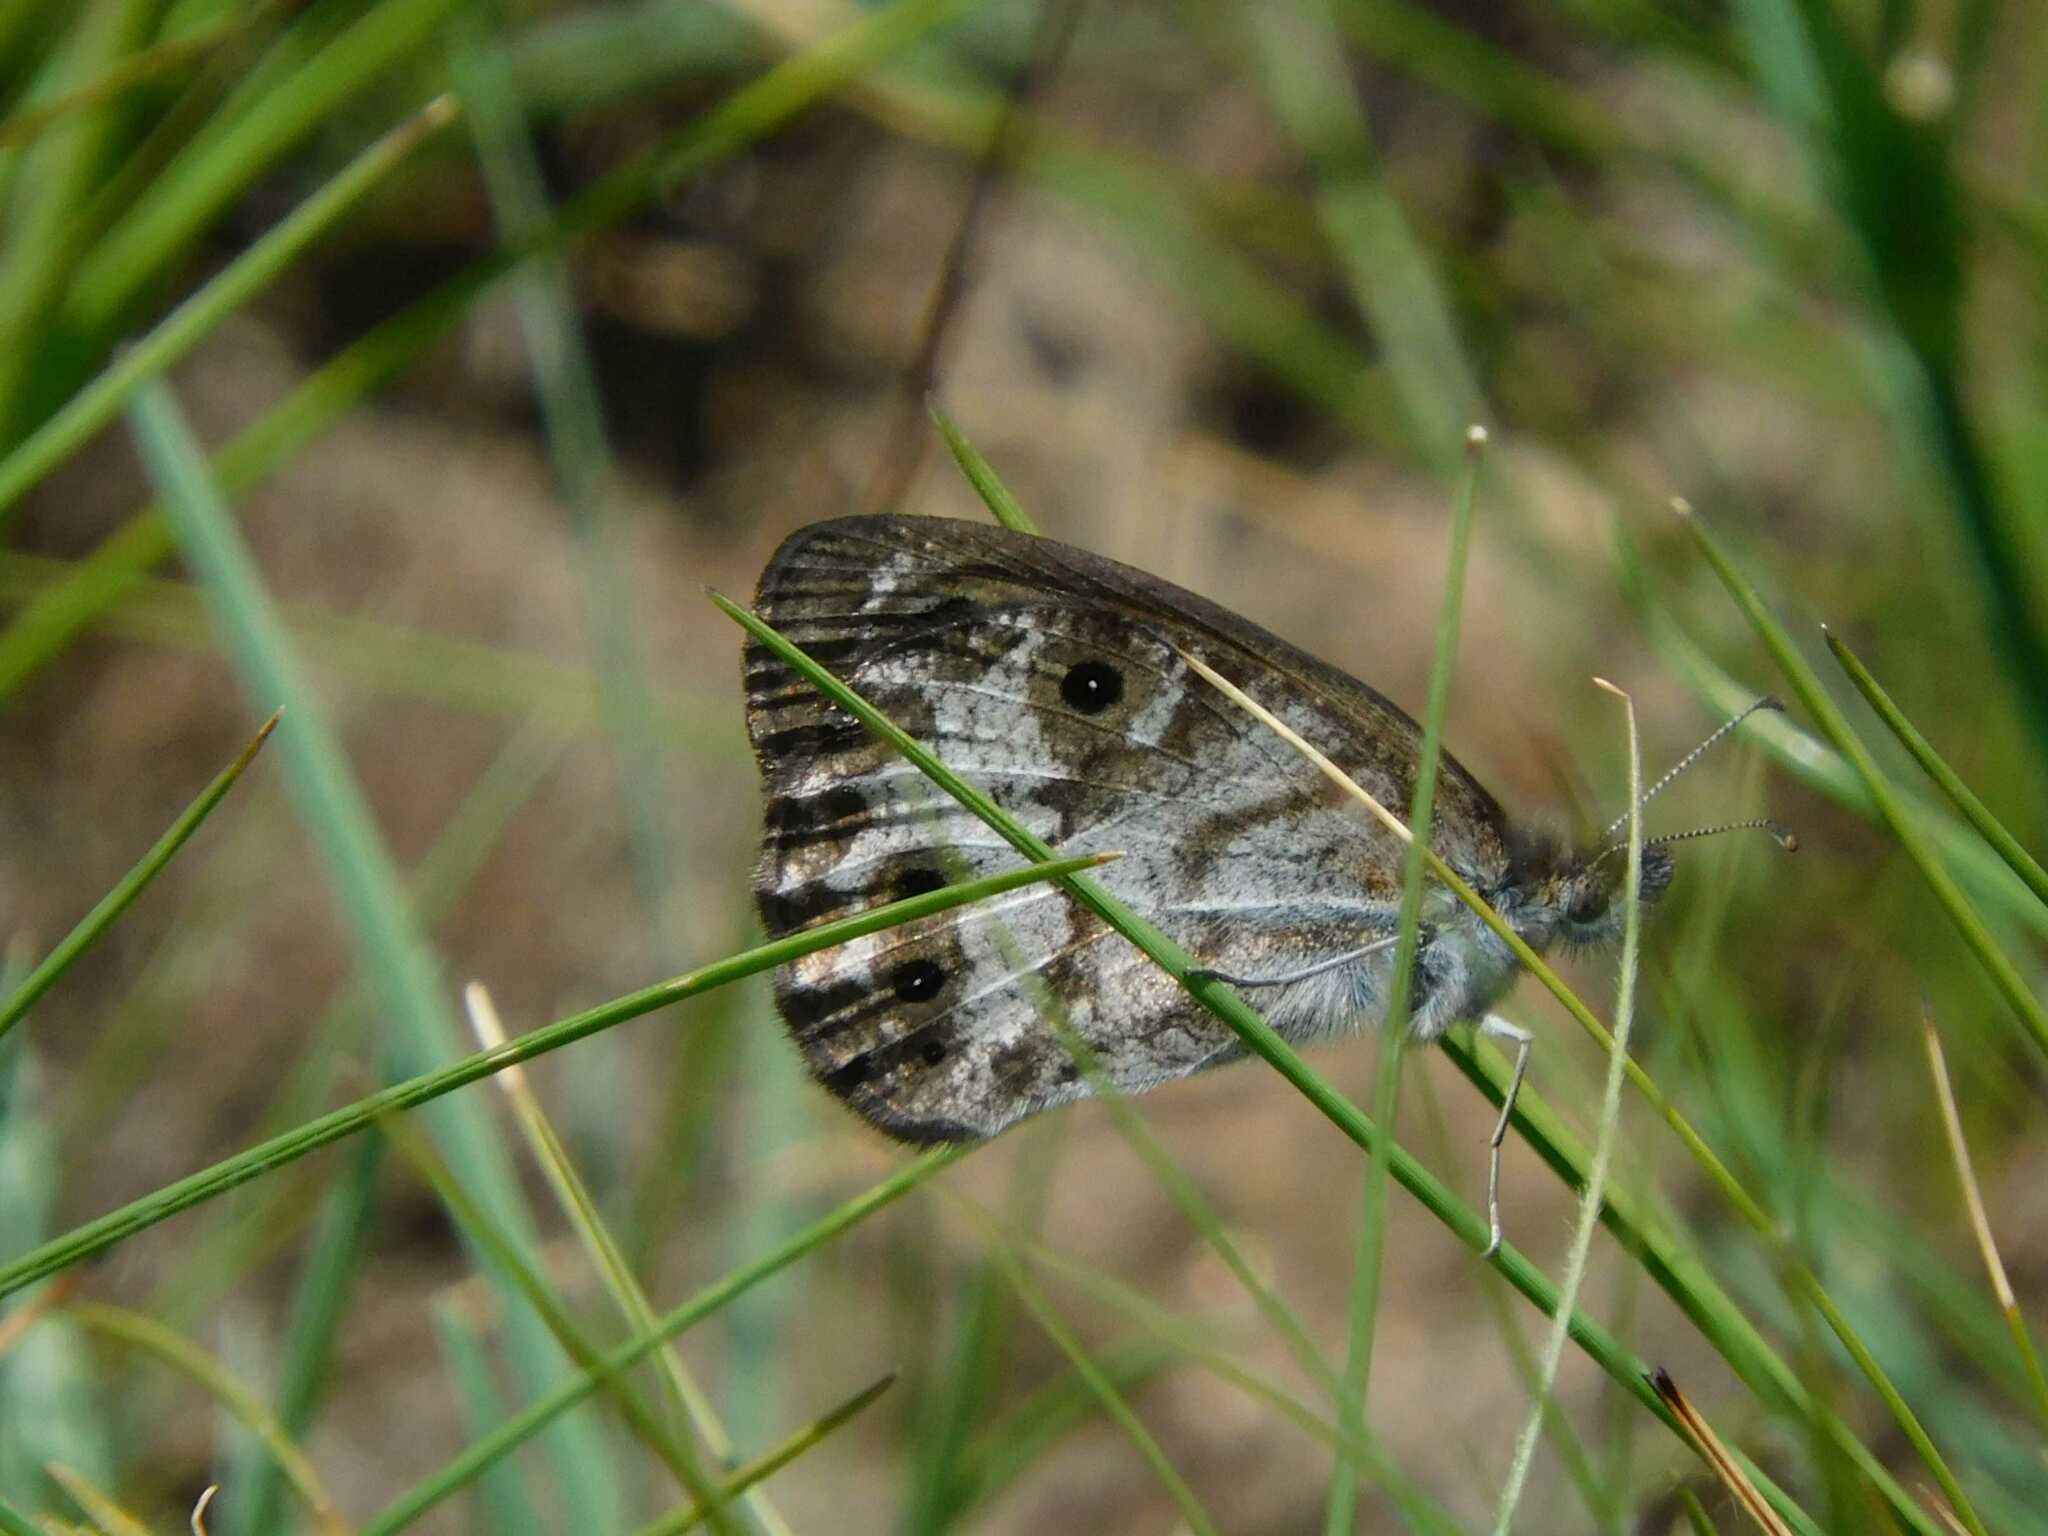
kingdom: Animalia
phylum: Arthropoda
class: Insecta
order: Lepidoptera
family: Nymphalidae
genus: Pseudonympha
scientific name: Pseudonympha magoides
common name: False silver-bottom brown
